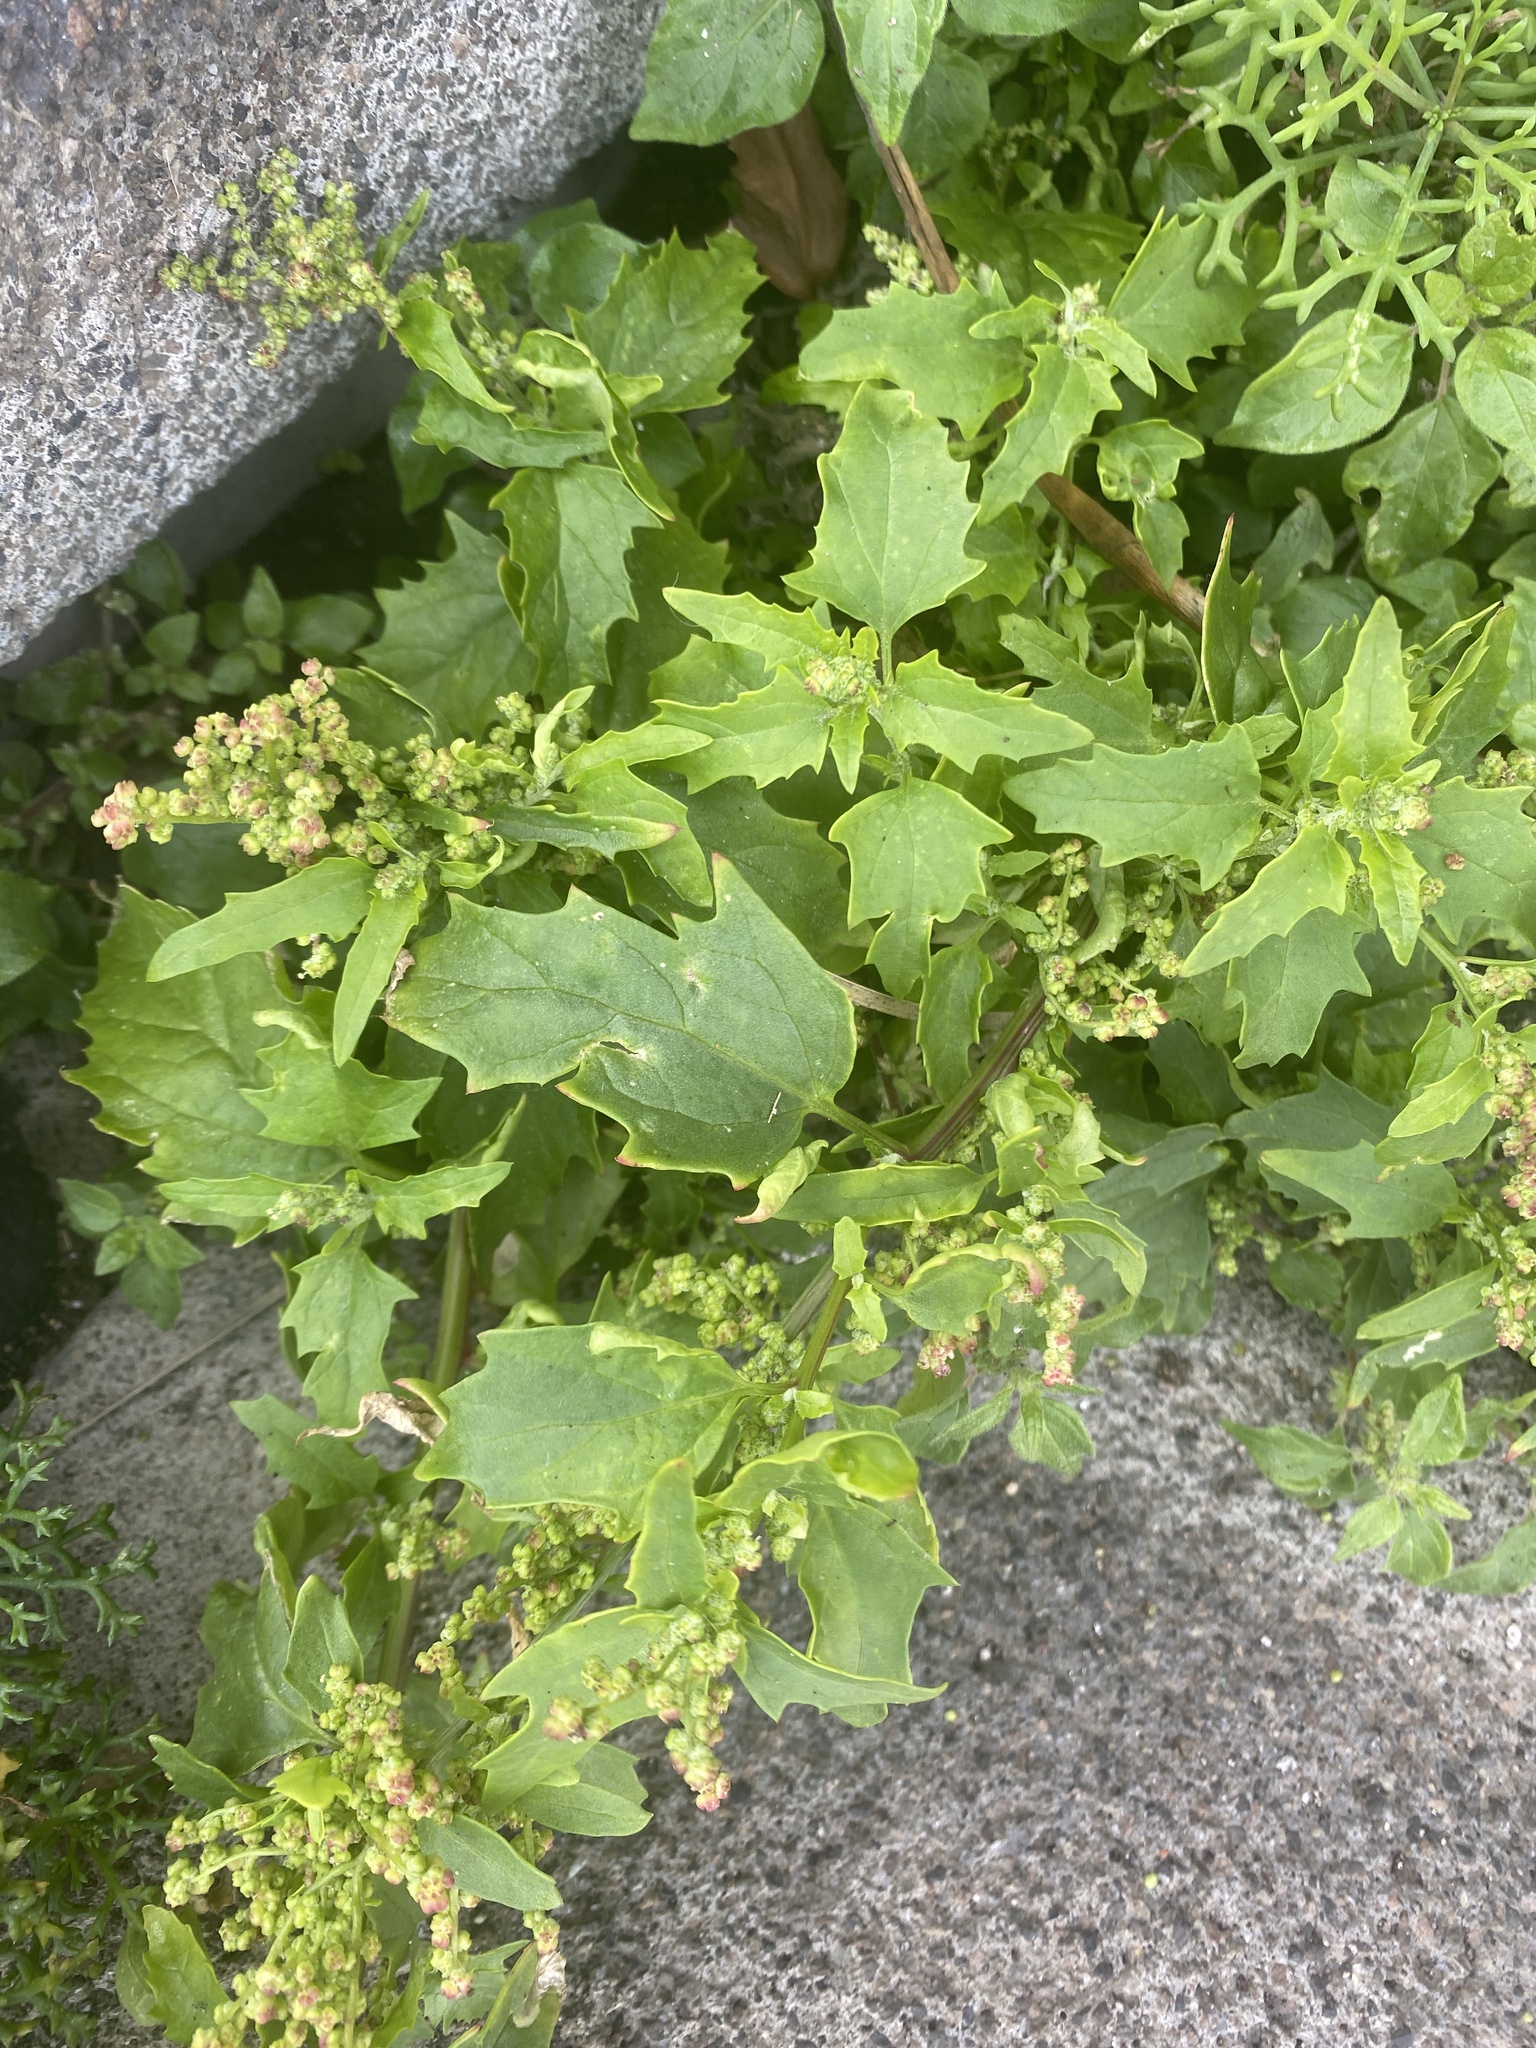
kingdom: Plantae
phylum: Tracheophyta
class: Magnoliopsida
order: Caryophyllales
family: Amaranthaceae
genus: Chenopodiastrum
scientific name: Chenopodiastrum murale
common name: Sowbane
